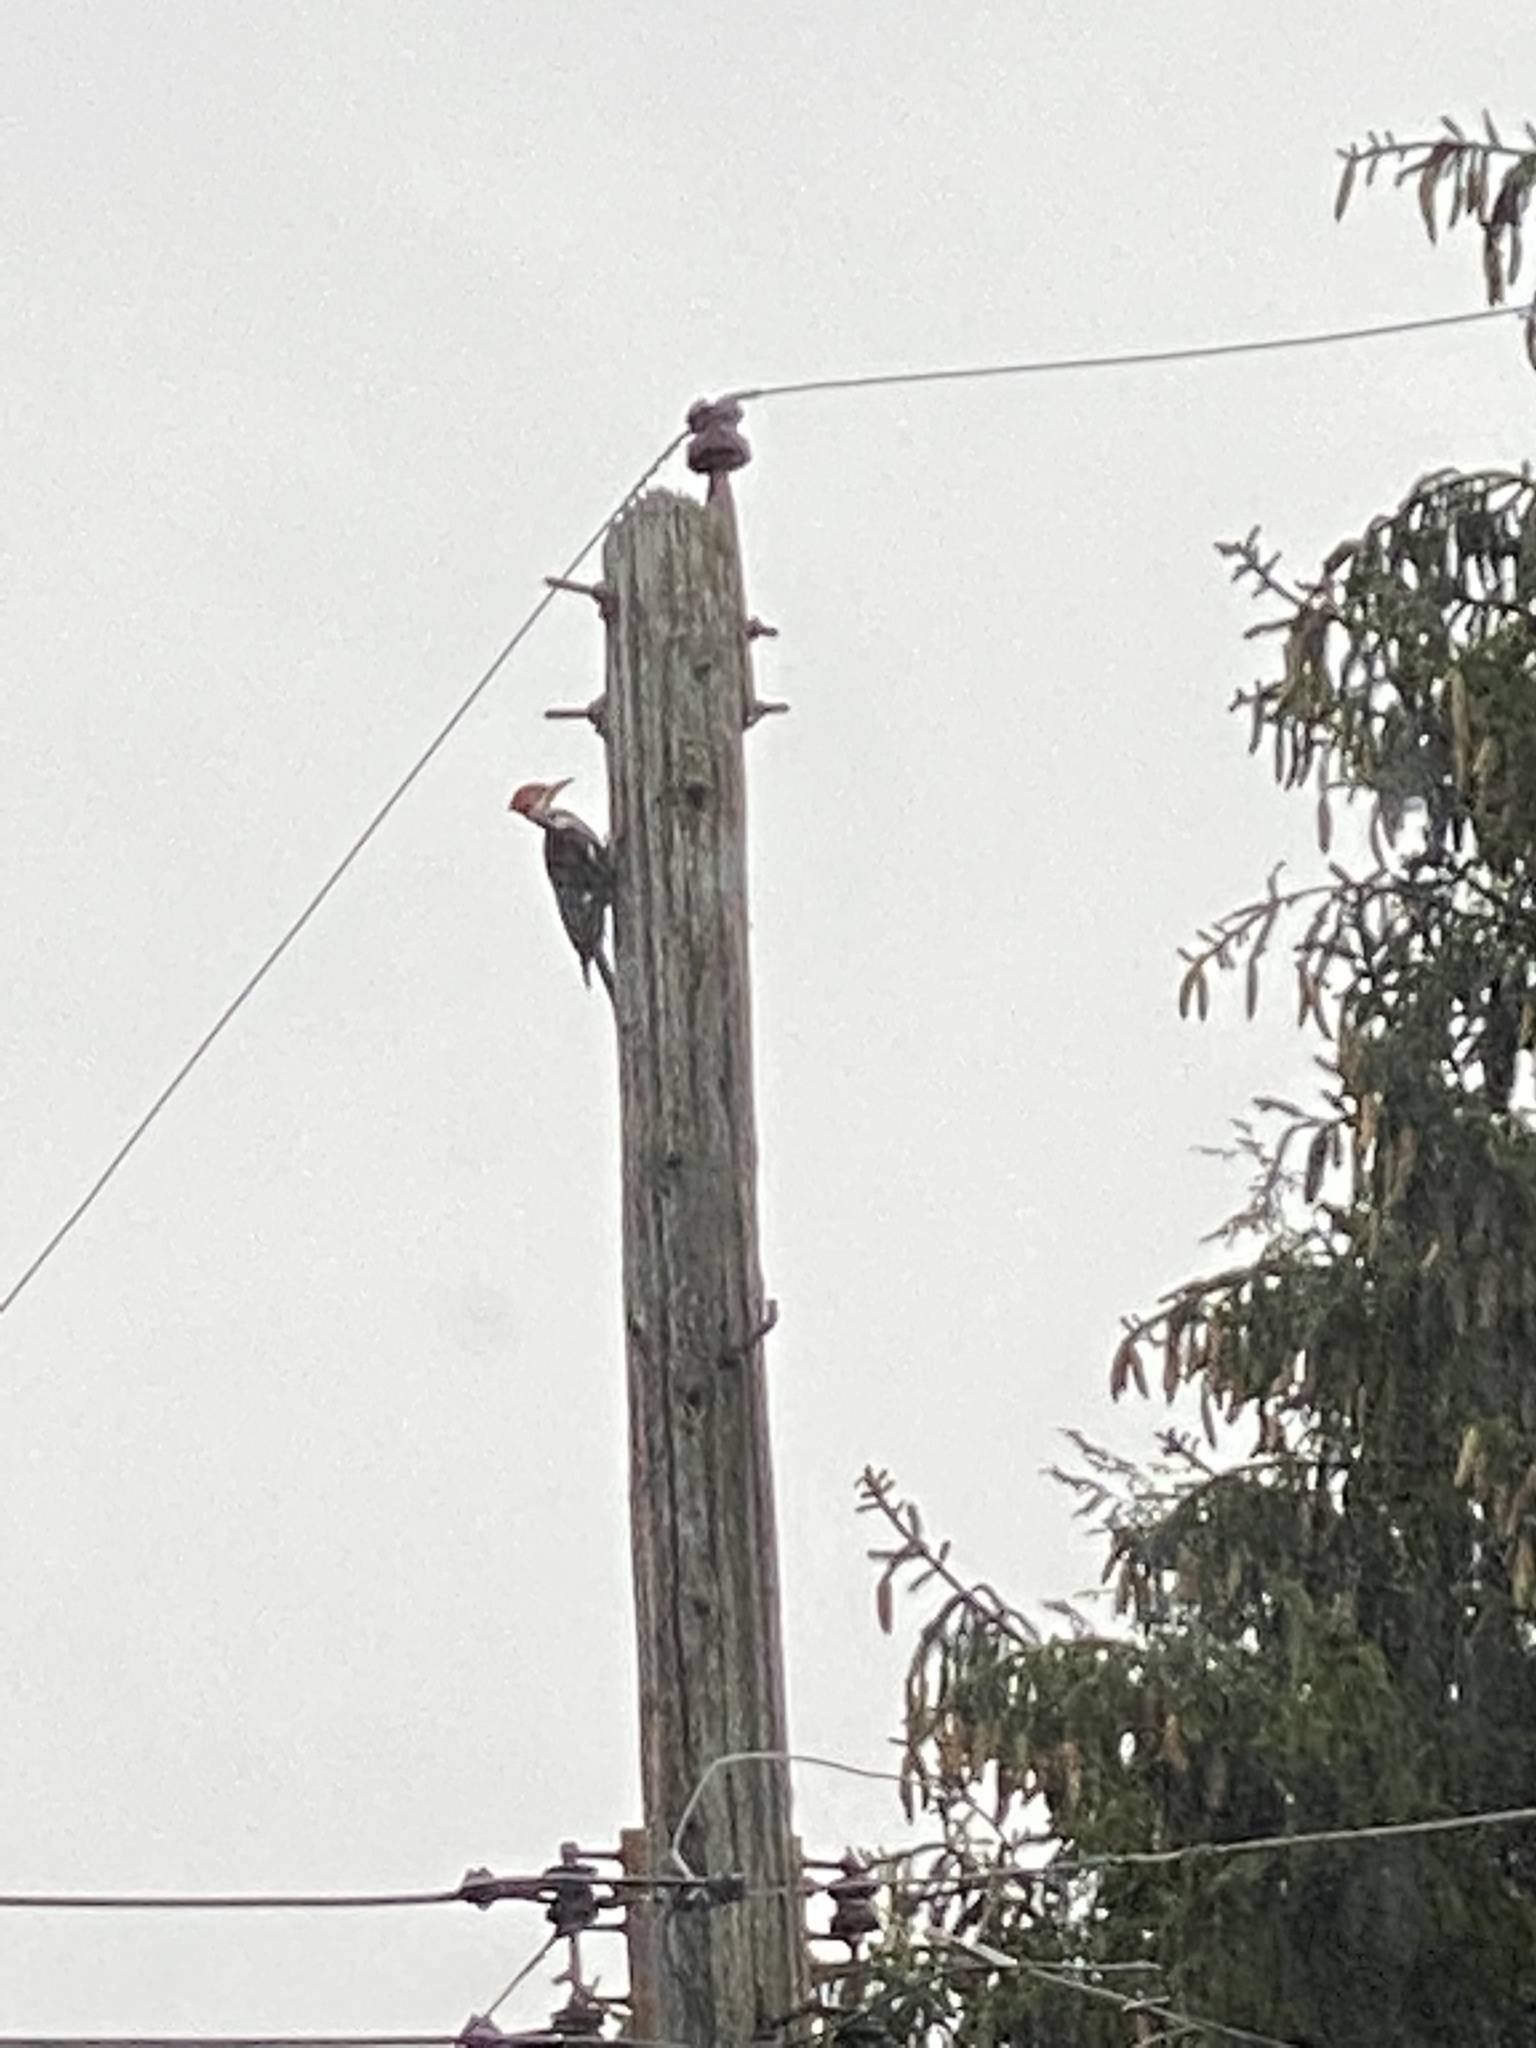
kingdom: Animalia
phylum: Chordata
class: Aves
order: Piciformes
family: Picidae
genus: Dryocopus
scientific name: Dryocopus pileatus
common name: Pileated woodpecker
